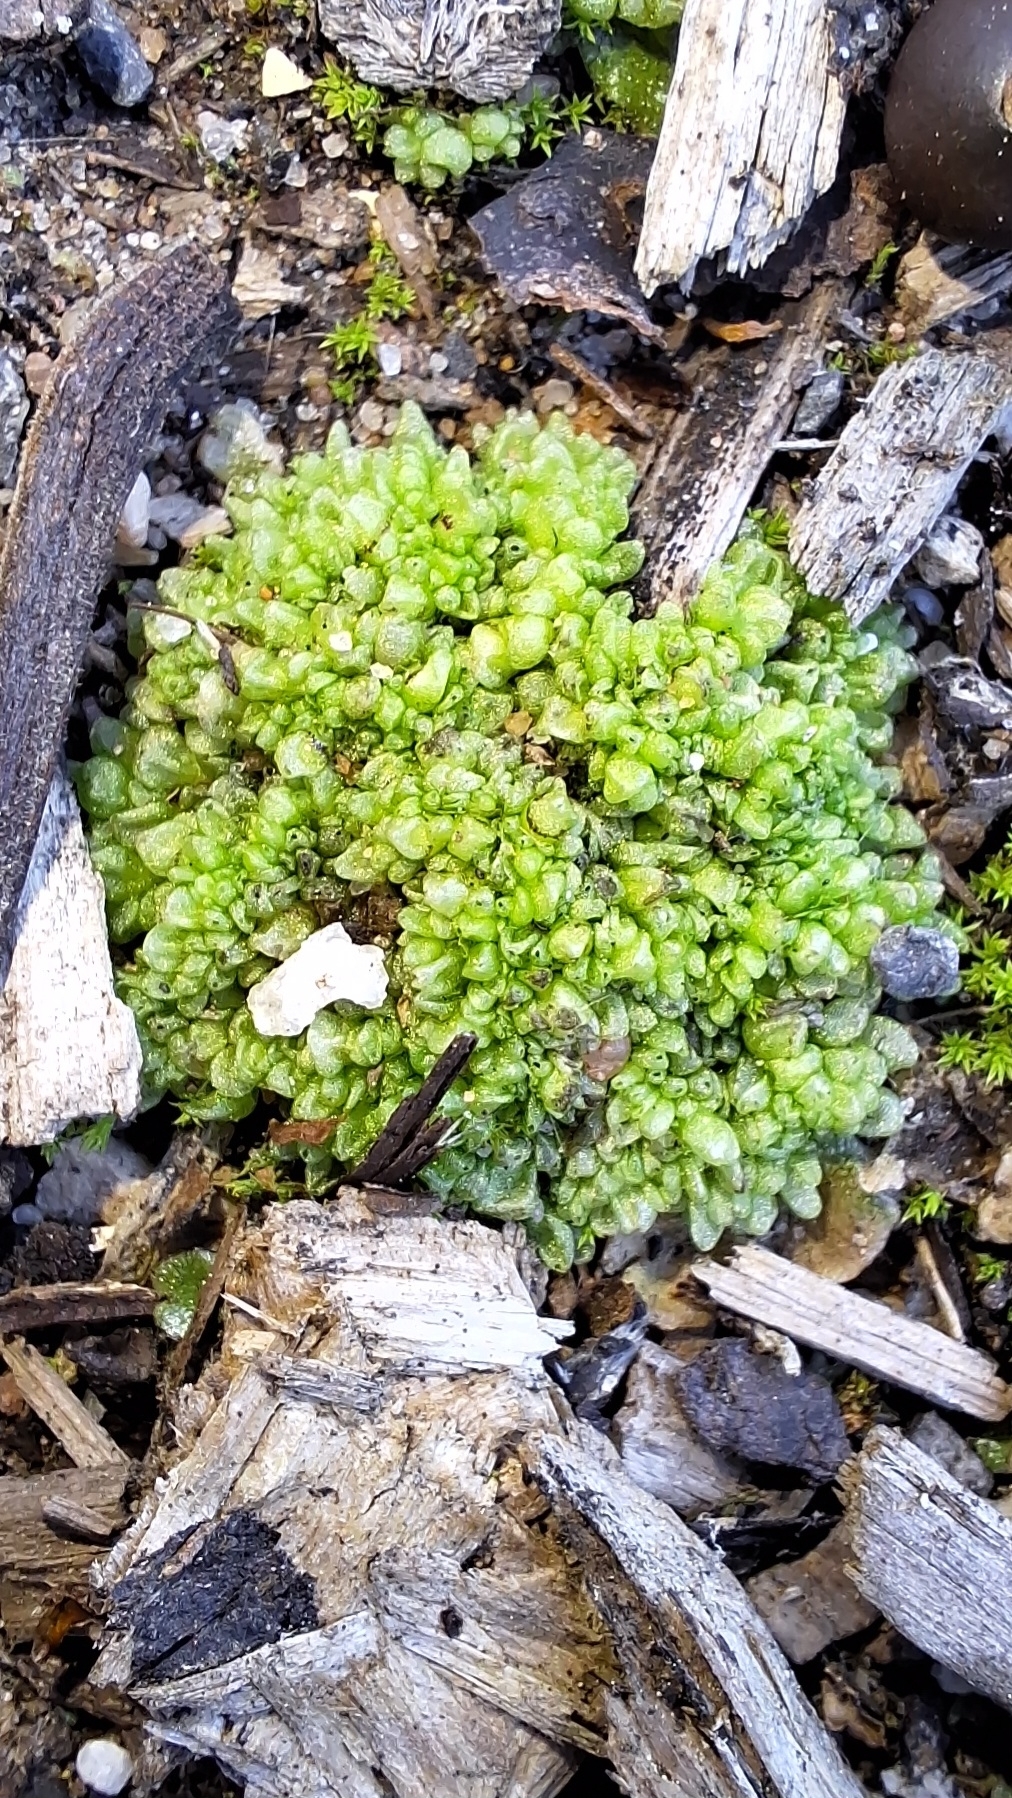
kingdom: Plantae
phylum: Marchantiophyta
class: Marchantiopsida
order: Sphaerocarpales
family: Sphaerocarpaceae
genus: Sphaerocarpos
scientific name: Sphaerocarpos texanus
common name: Texas balloonwort
